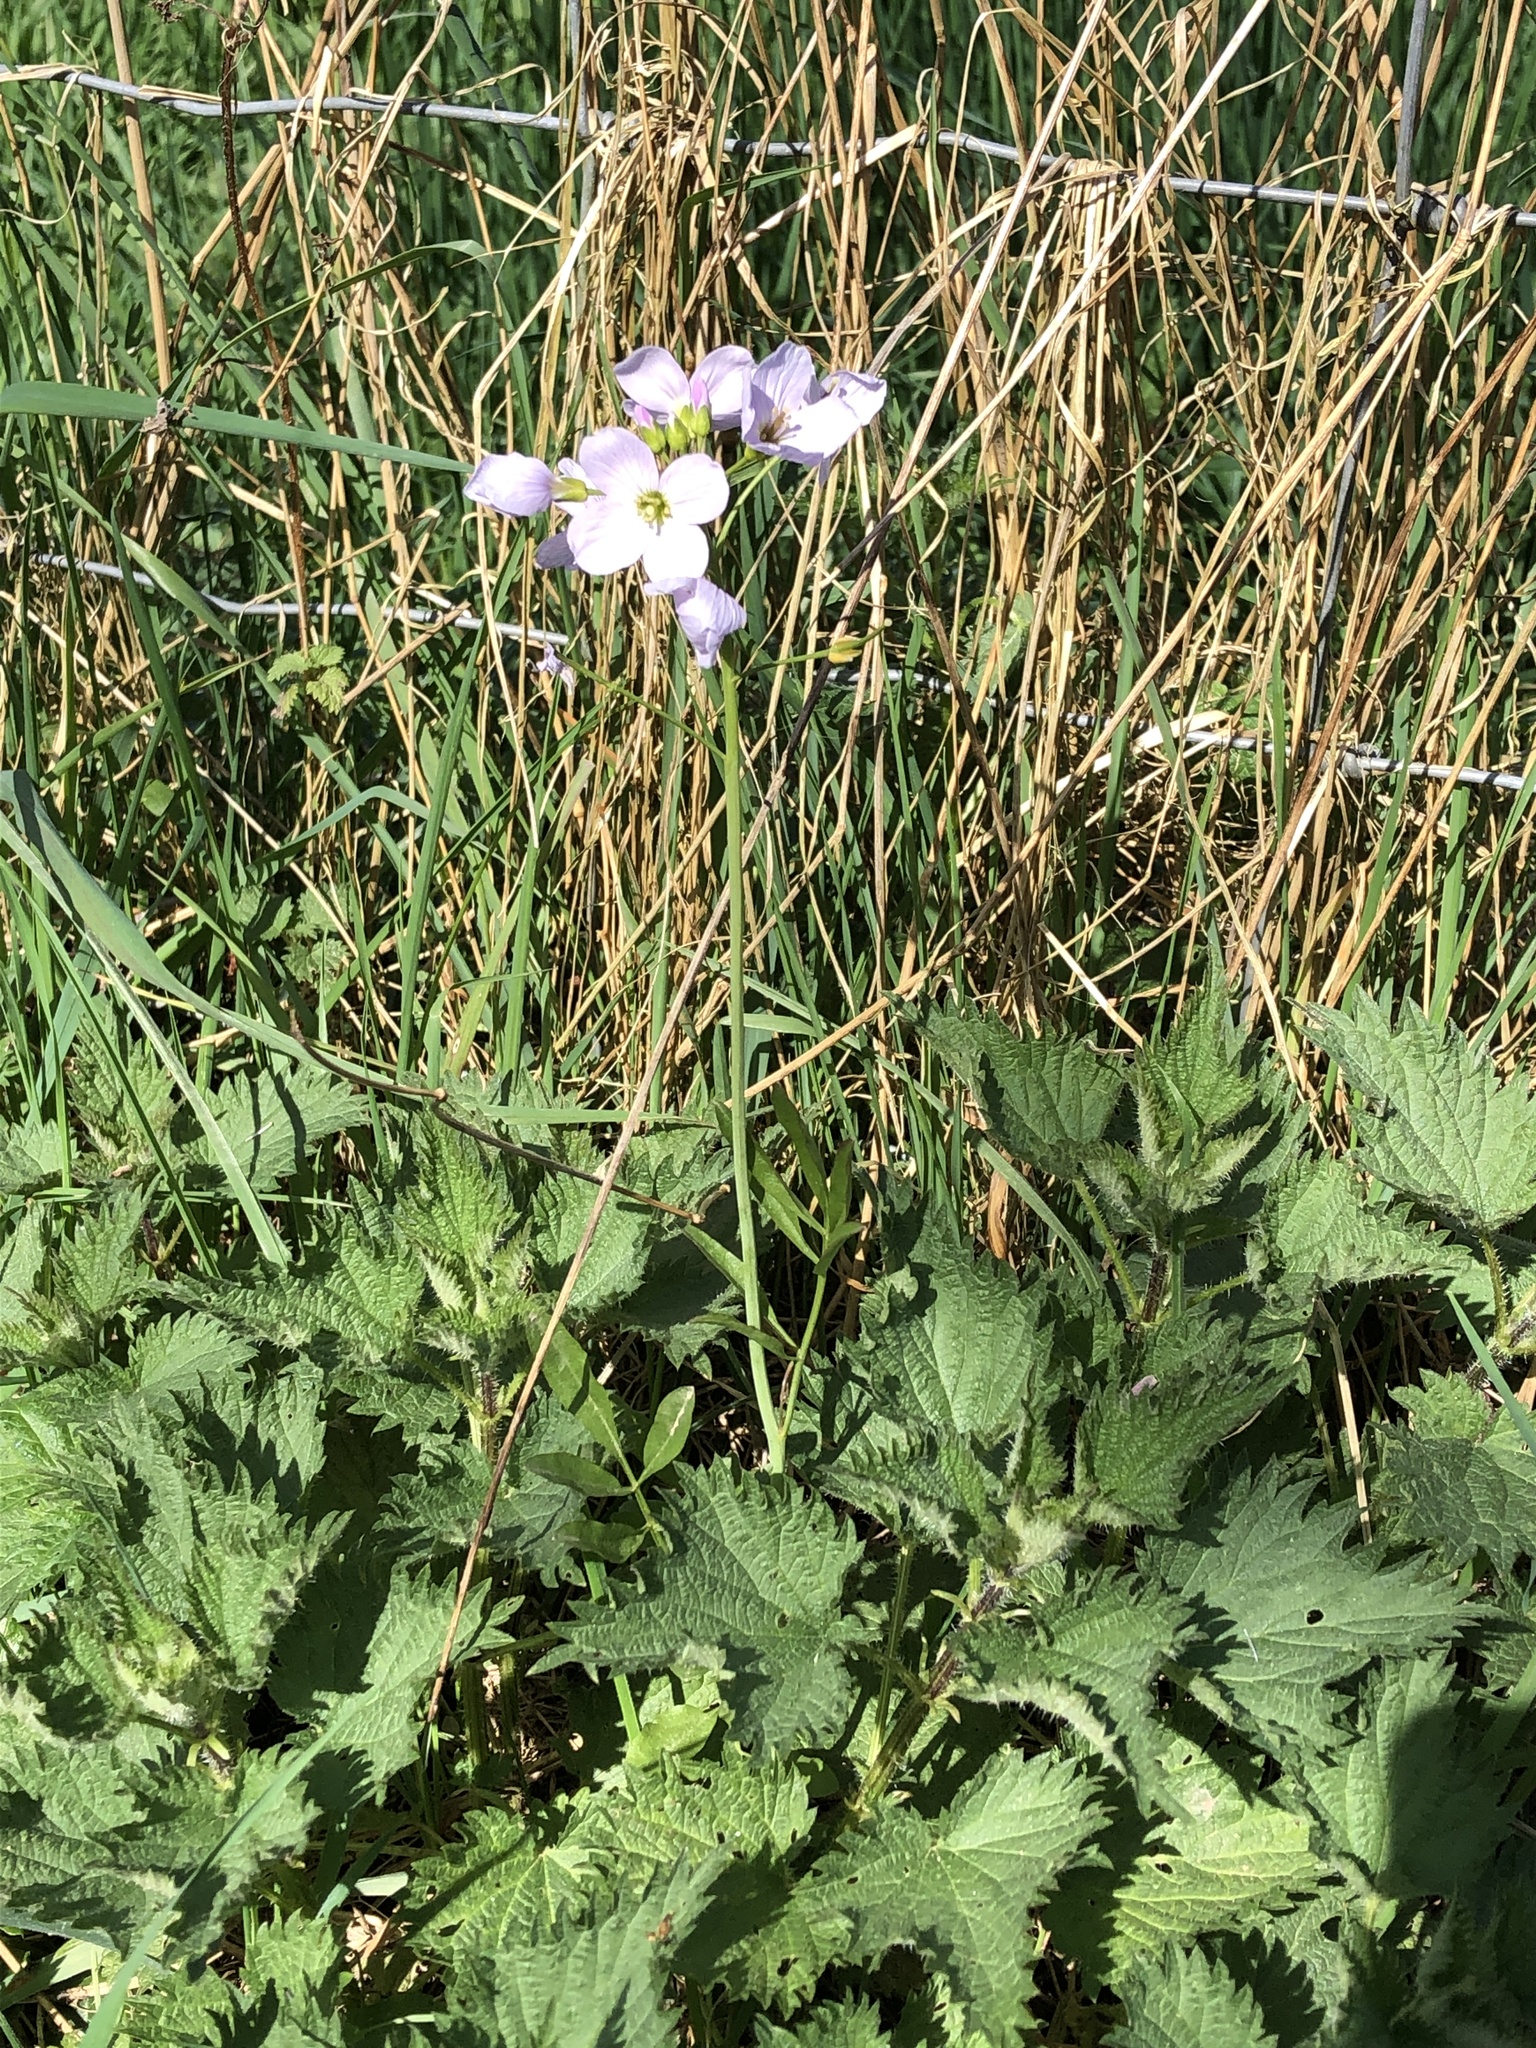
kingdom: Plantae
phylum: Tracheophyta
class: Magnoliopsida
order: Brassicales
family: Brassicaceae
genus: Cardamine
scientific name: Cardamine pratensis
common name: Cuckoo flower
